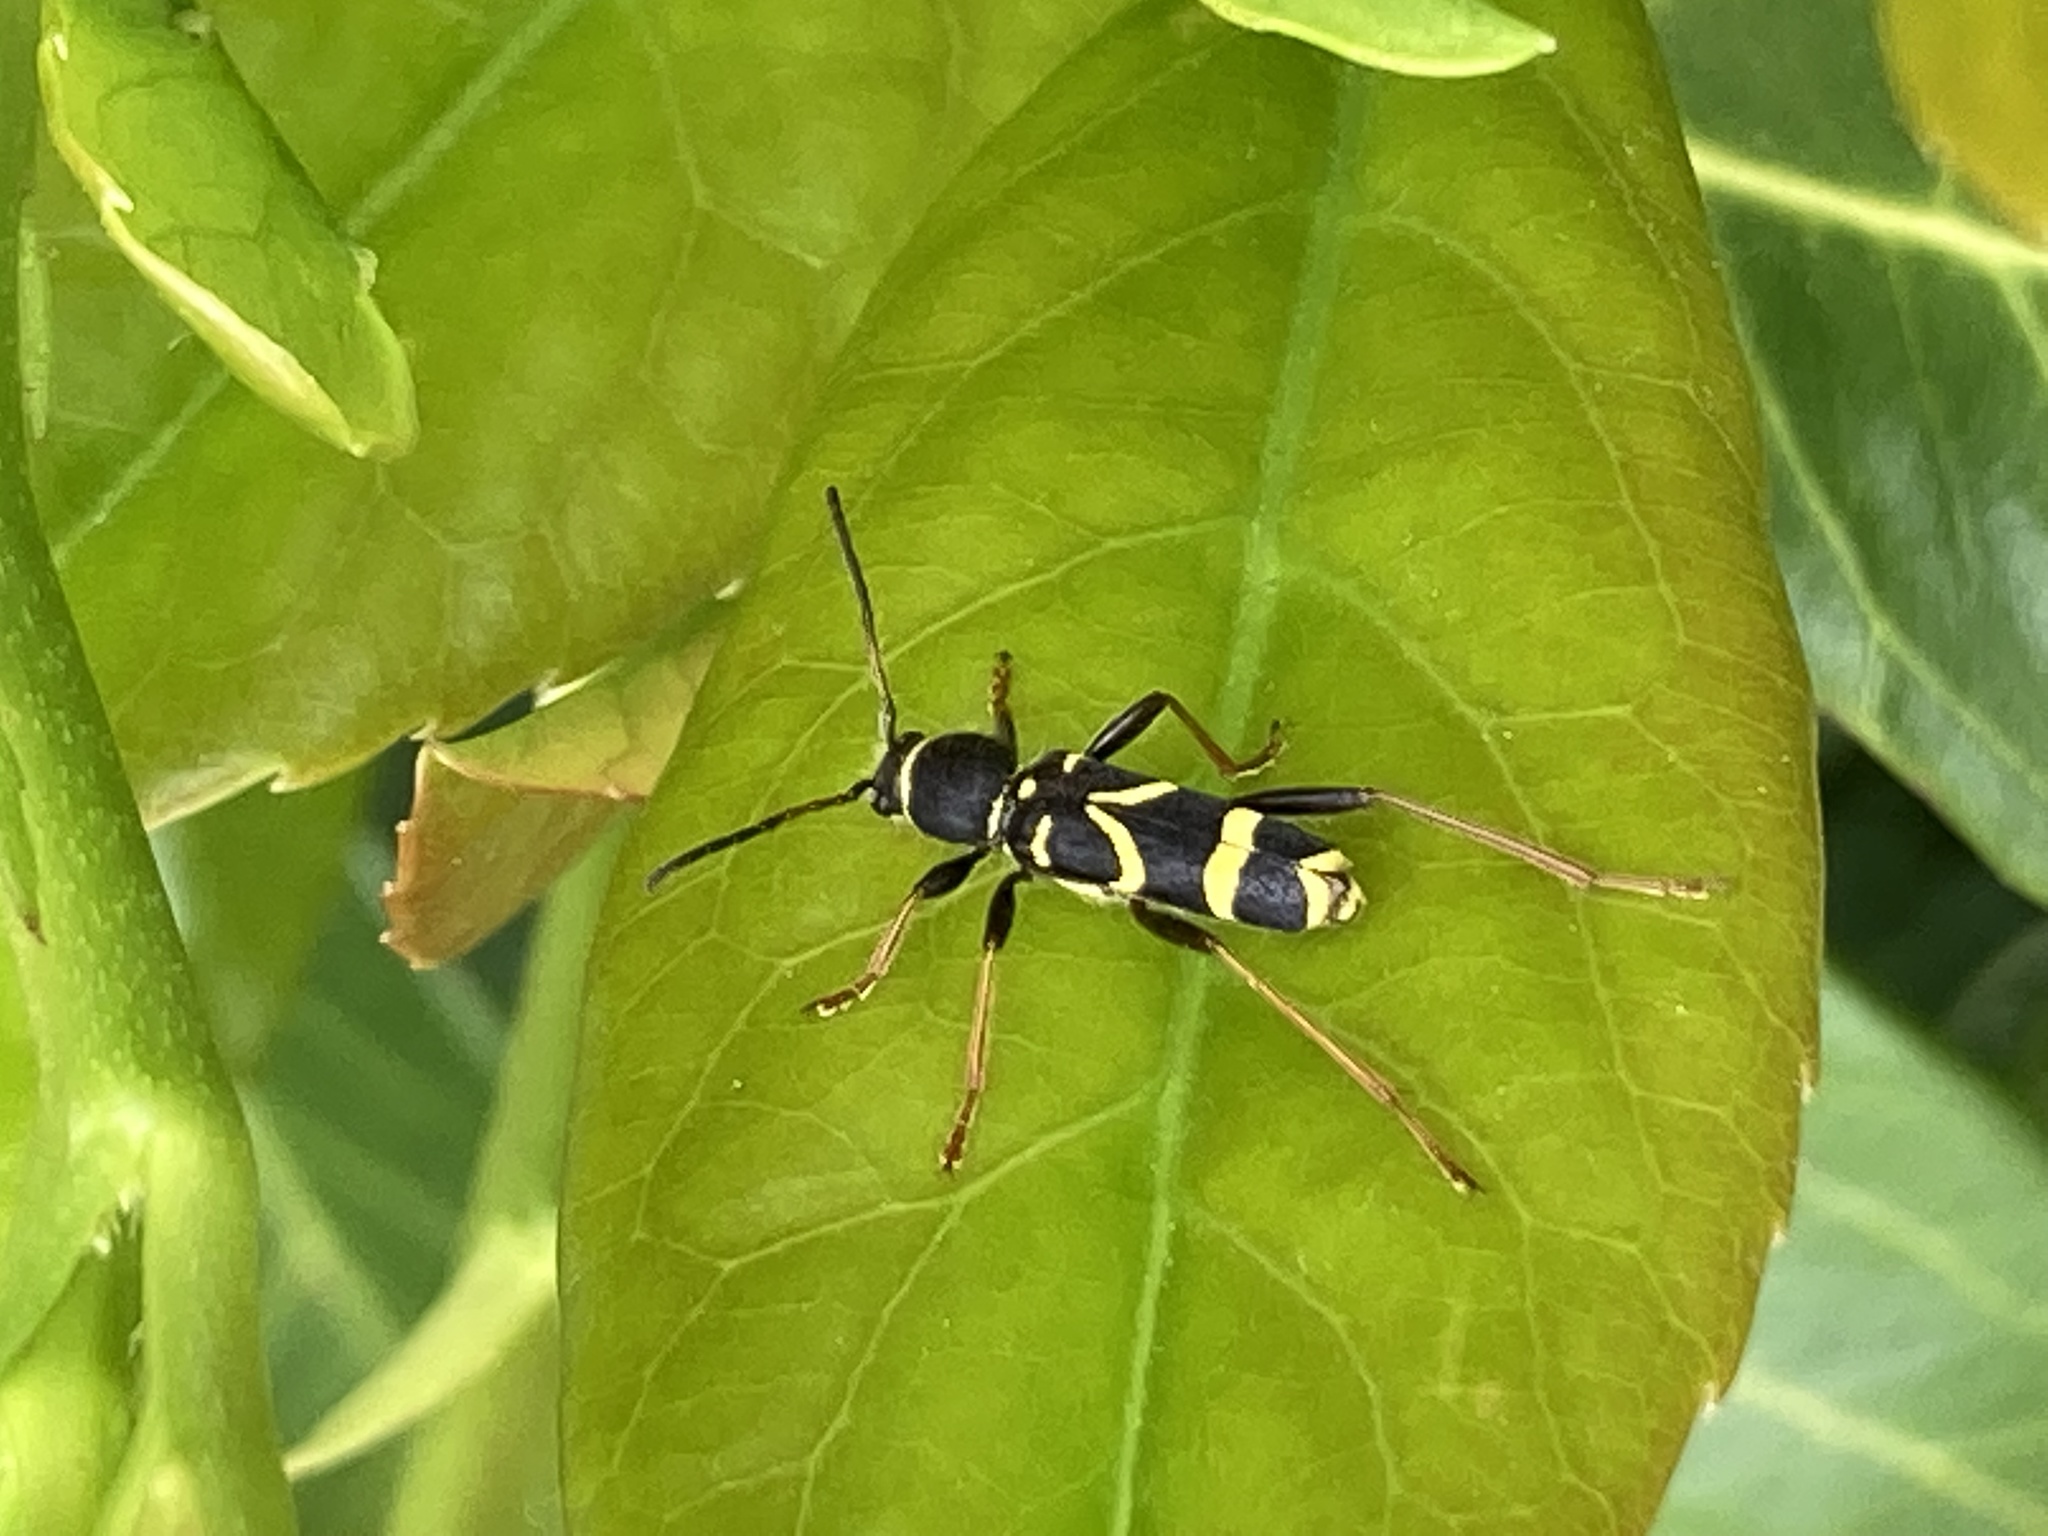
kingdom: Animalia
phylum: Arthropoda
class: Insecta
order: Coleoptera
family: Cerambycidae
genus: Clytus
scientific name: Clytus arietis
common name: Wasp beetle
